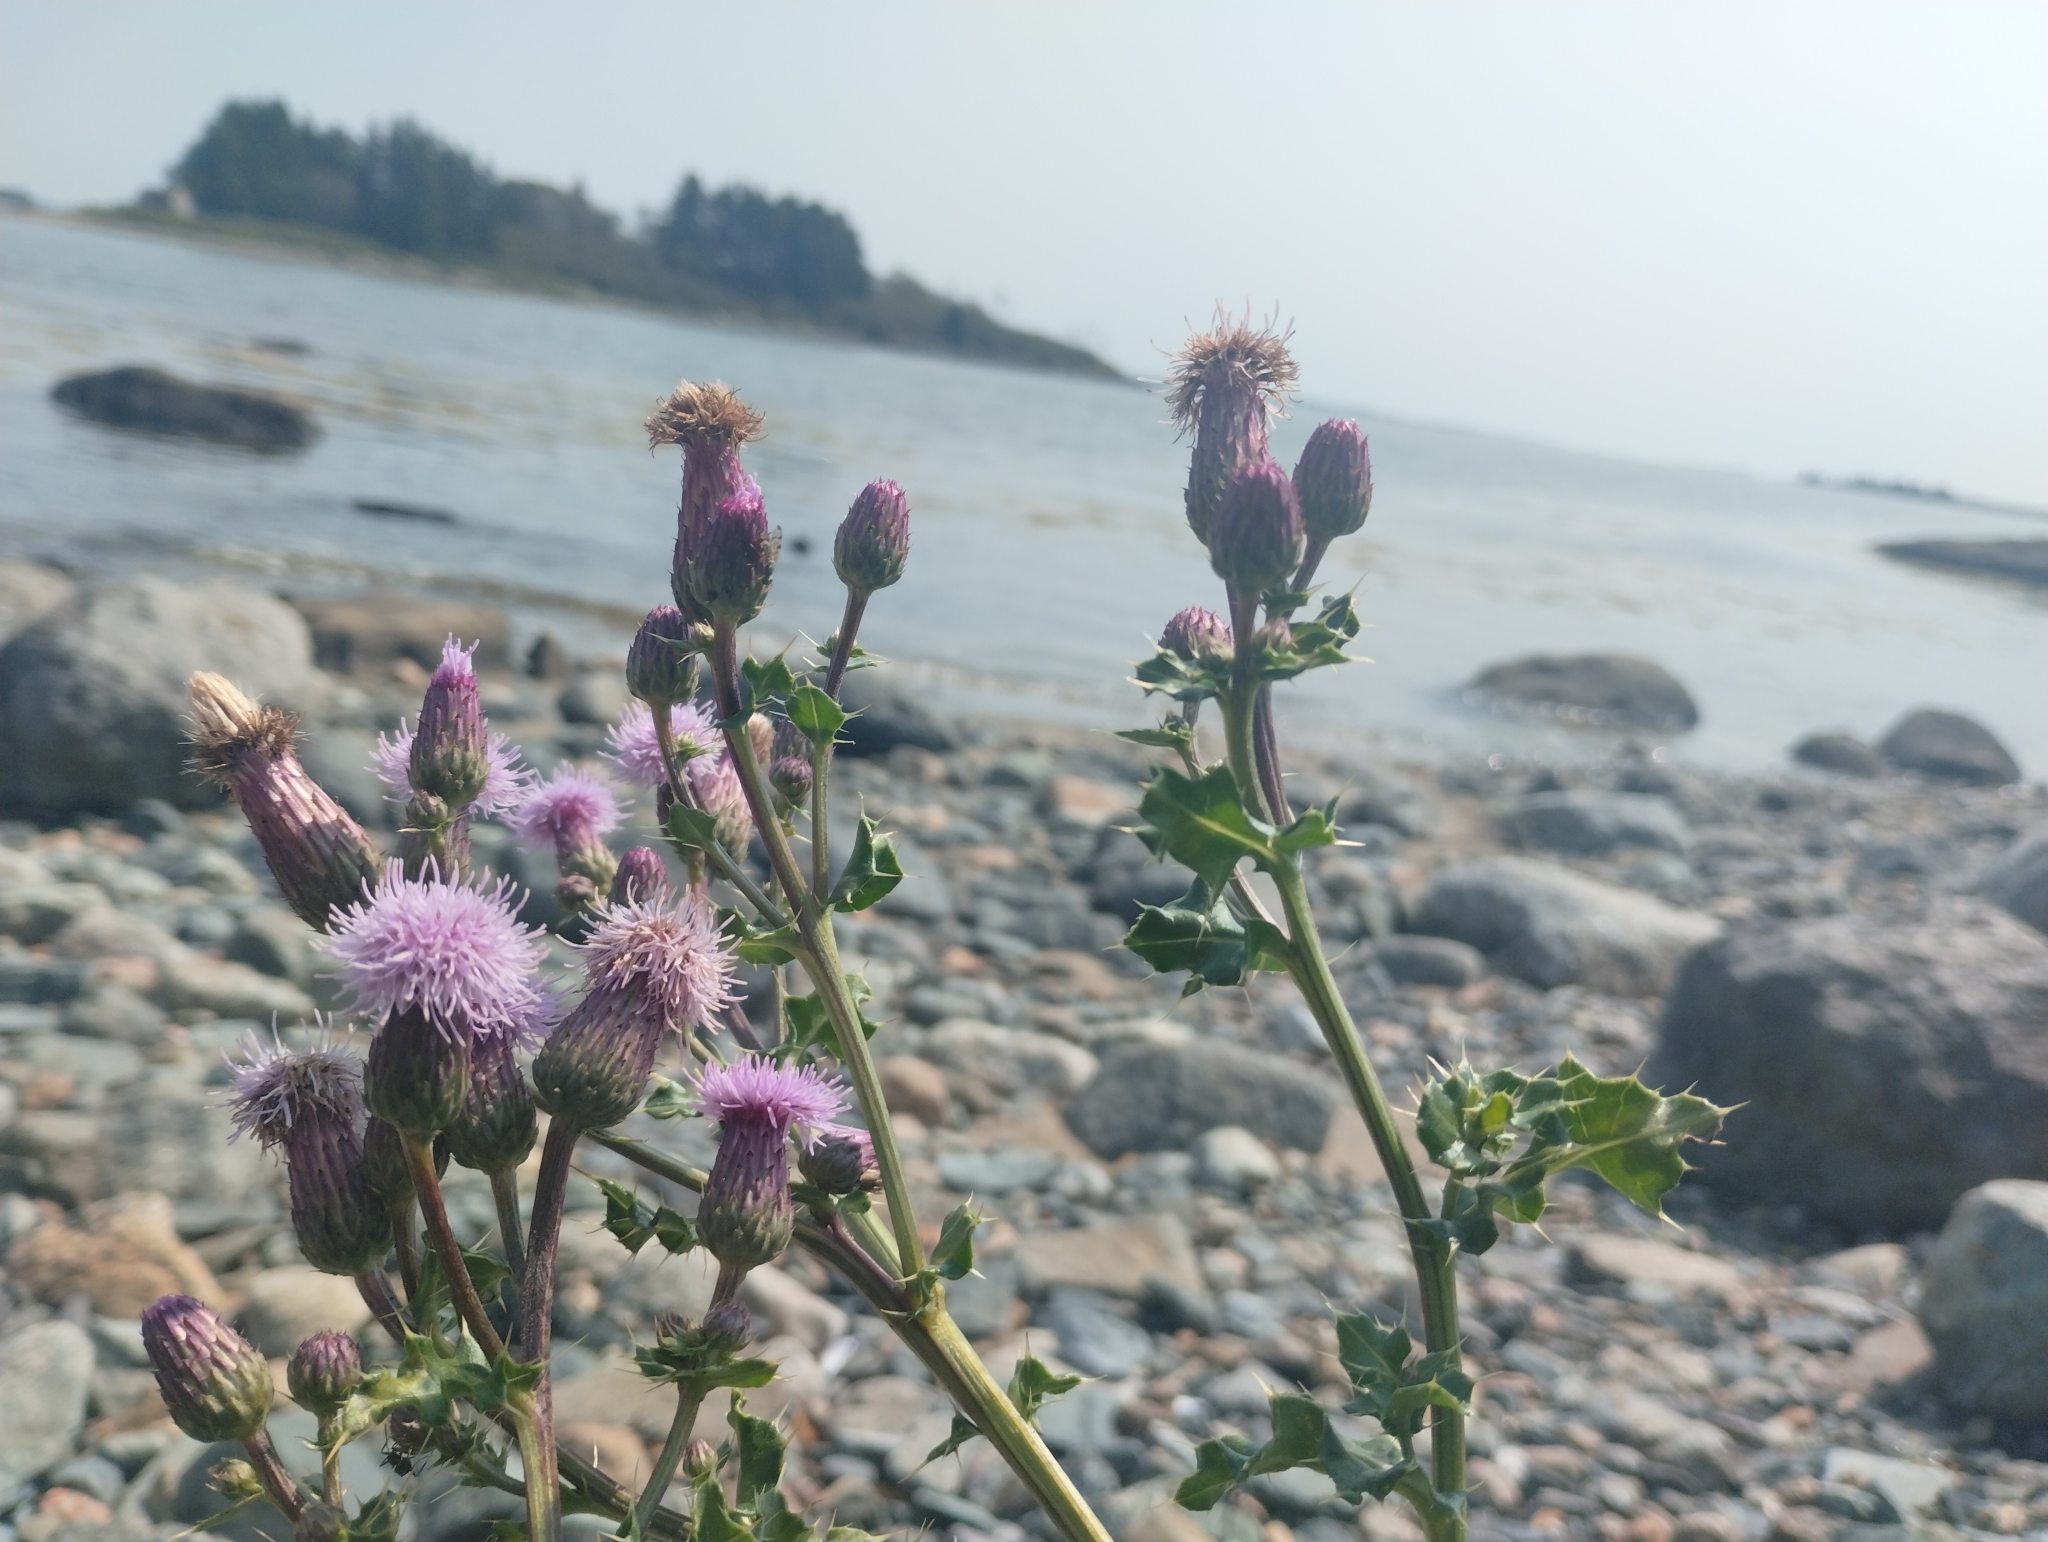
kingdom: Plantae
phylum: Tracheophyta
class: Magnoliopsida
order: Asterales
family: Asteraceae
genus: Cirsium
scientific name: Cirsium arvense
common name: Creeping thistle
